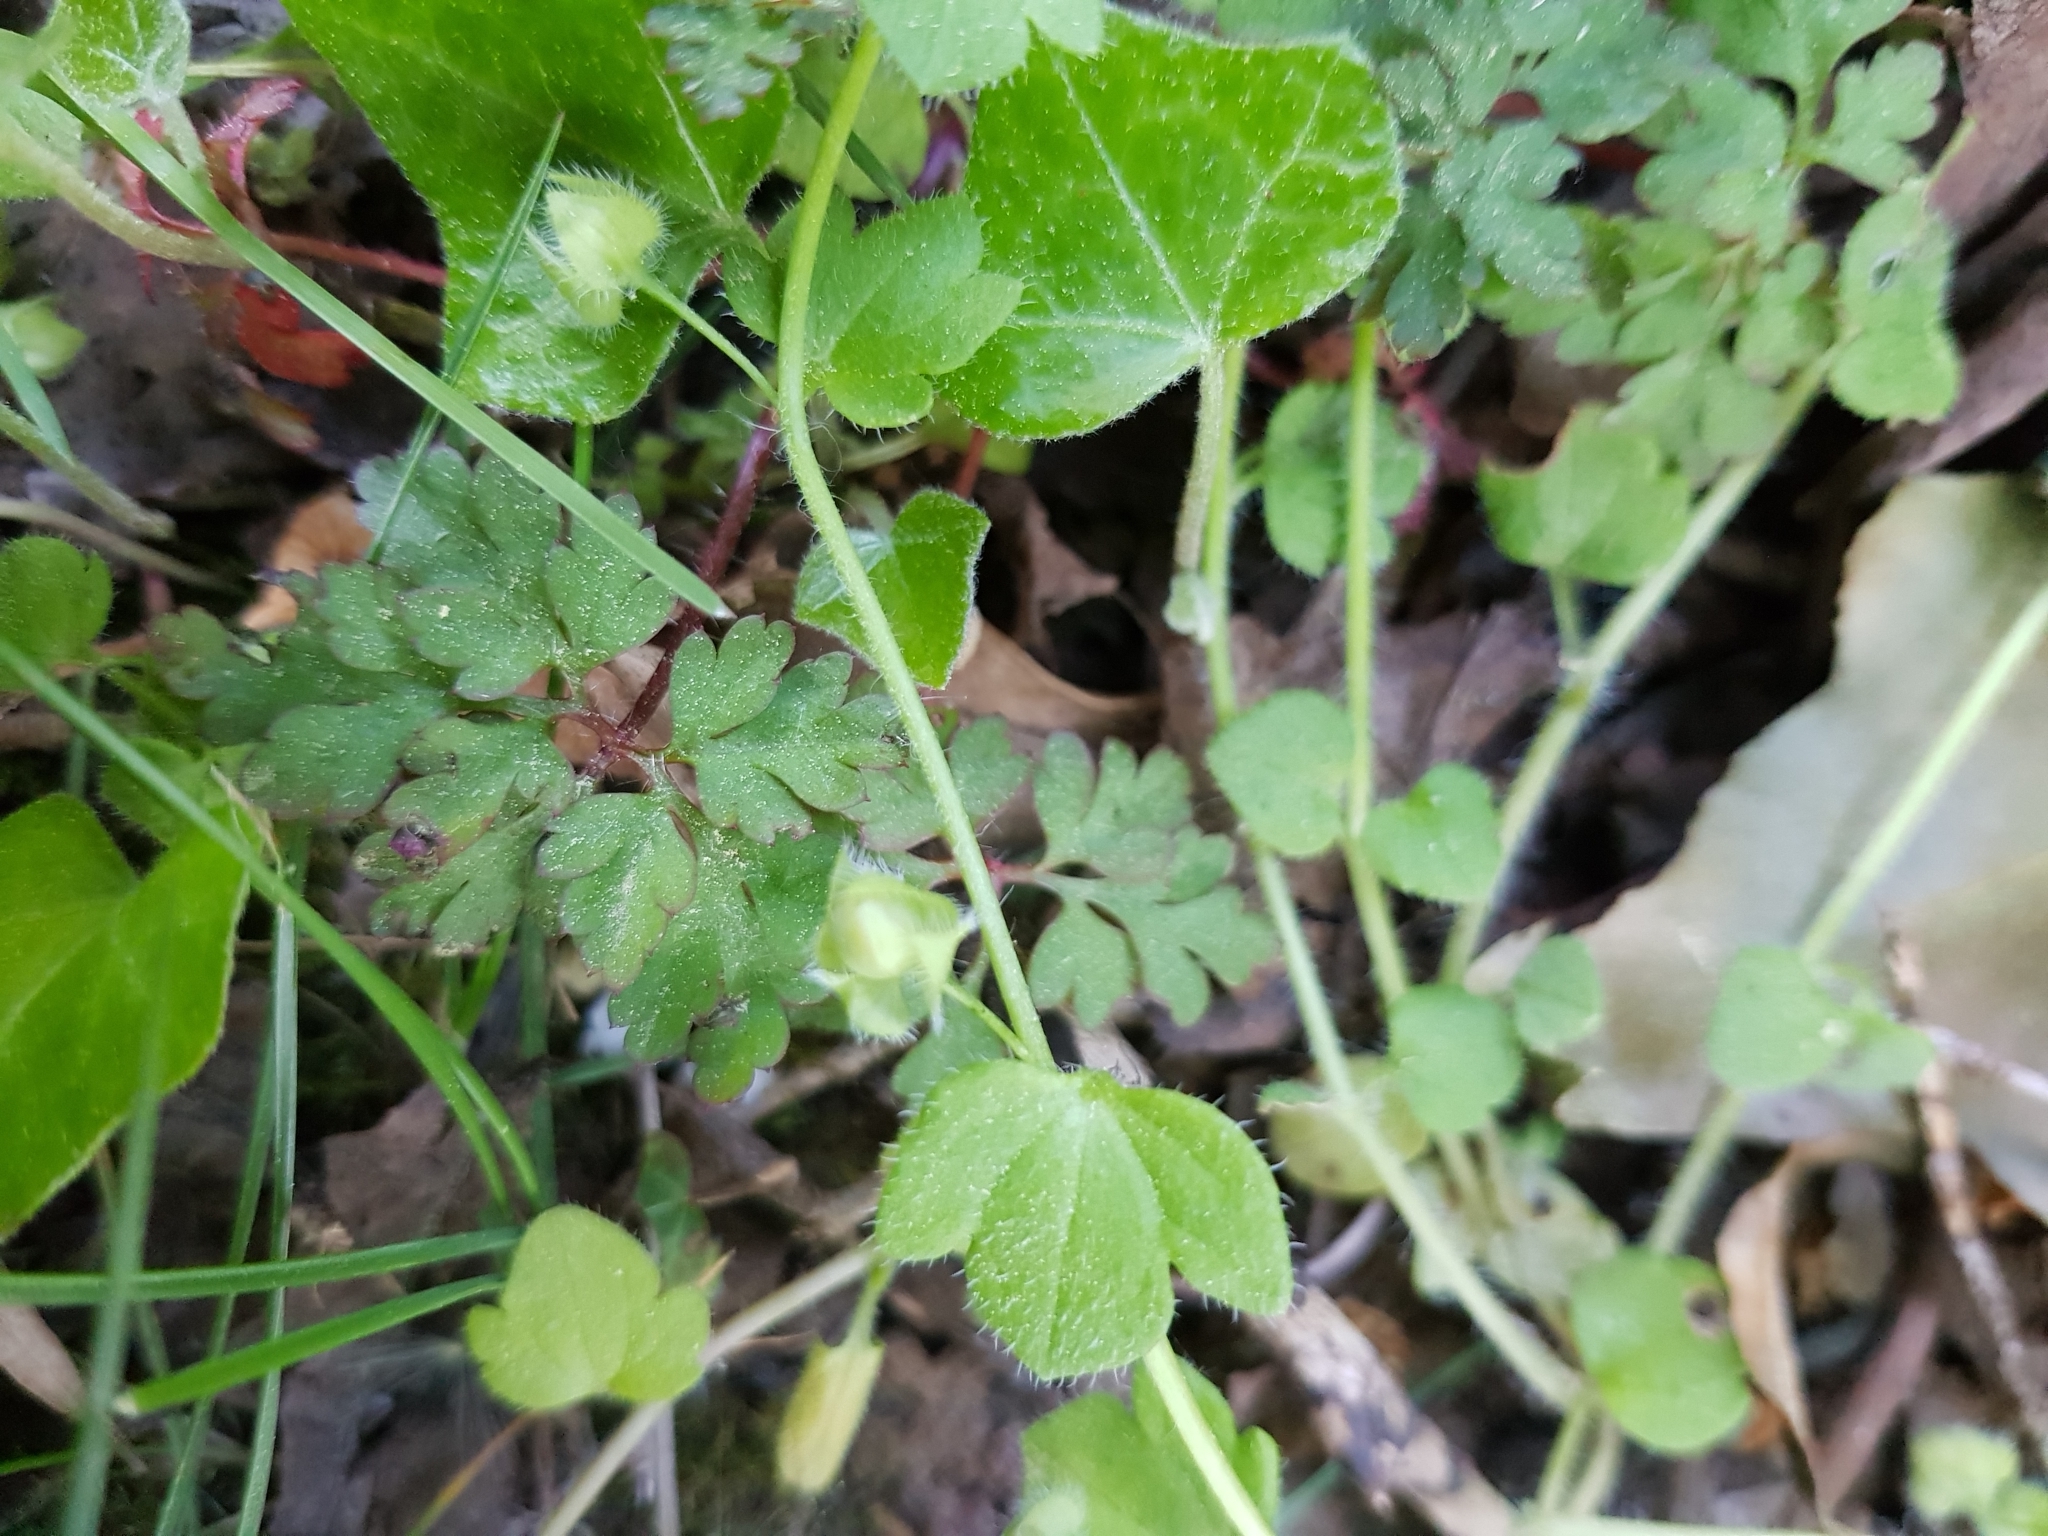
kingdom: Plantae
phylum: Tracheophyta
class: Magnoliopsida
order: Lamiales
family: Plantaginaceae
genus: Veronica
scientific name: Veronica hederifolia
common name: Ivy-leaved speedwell
